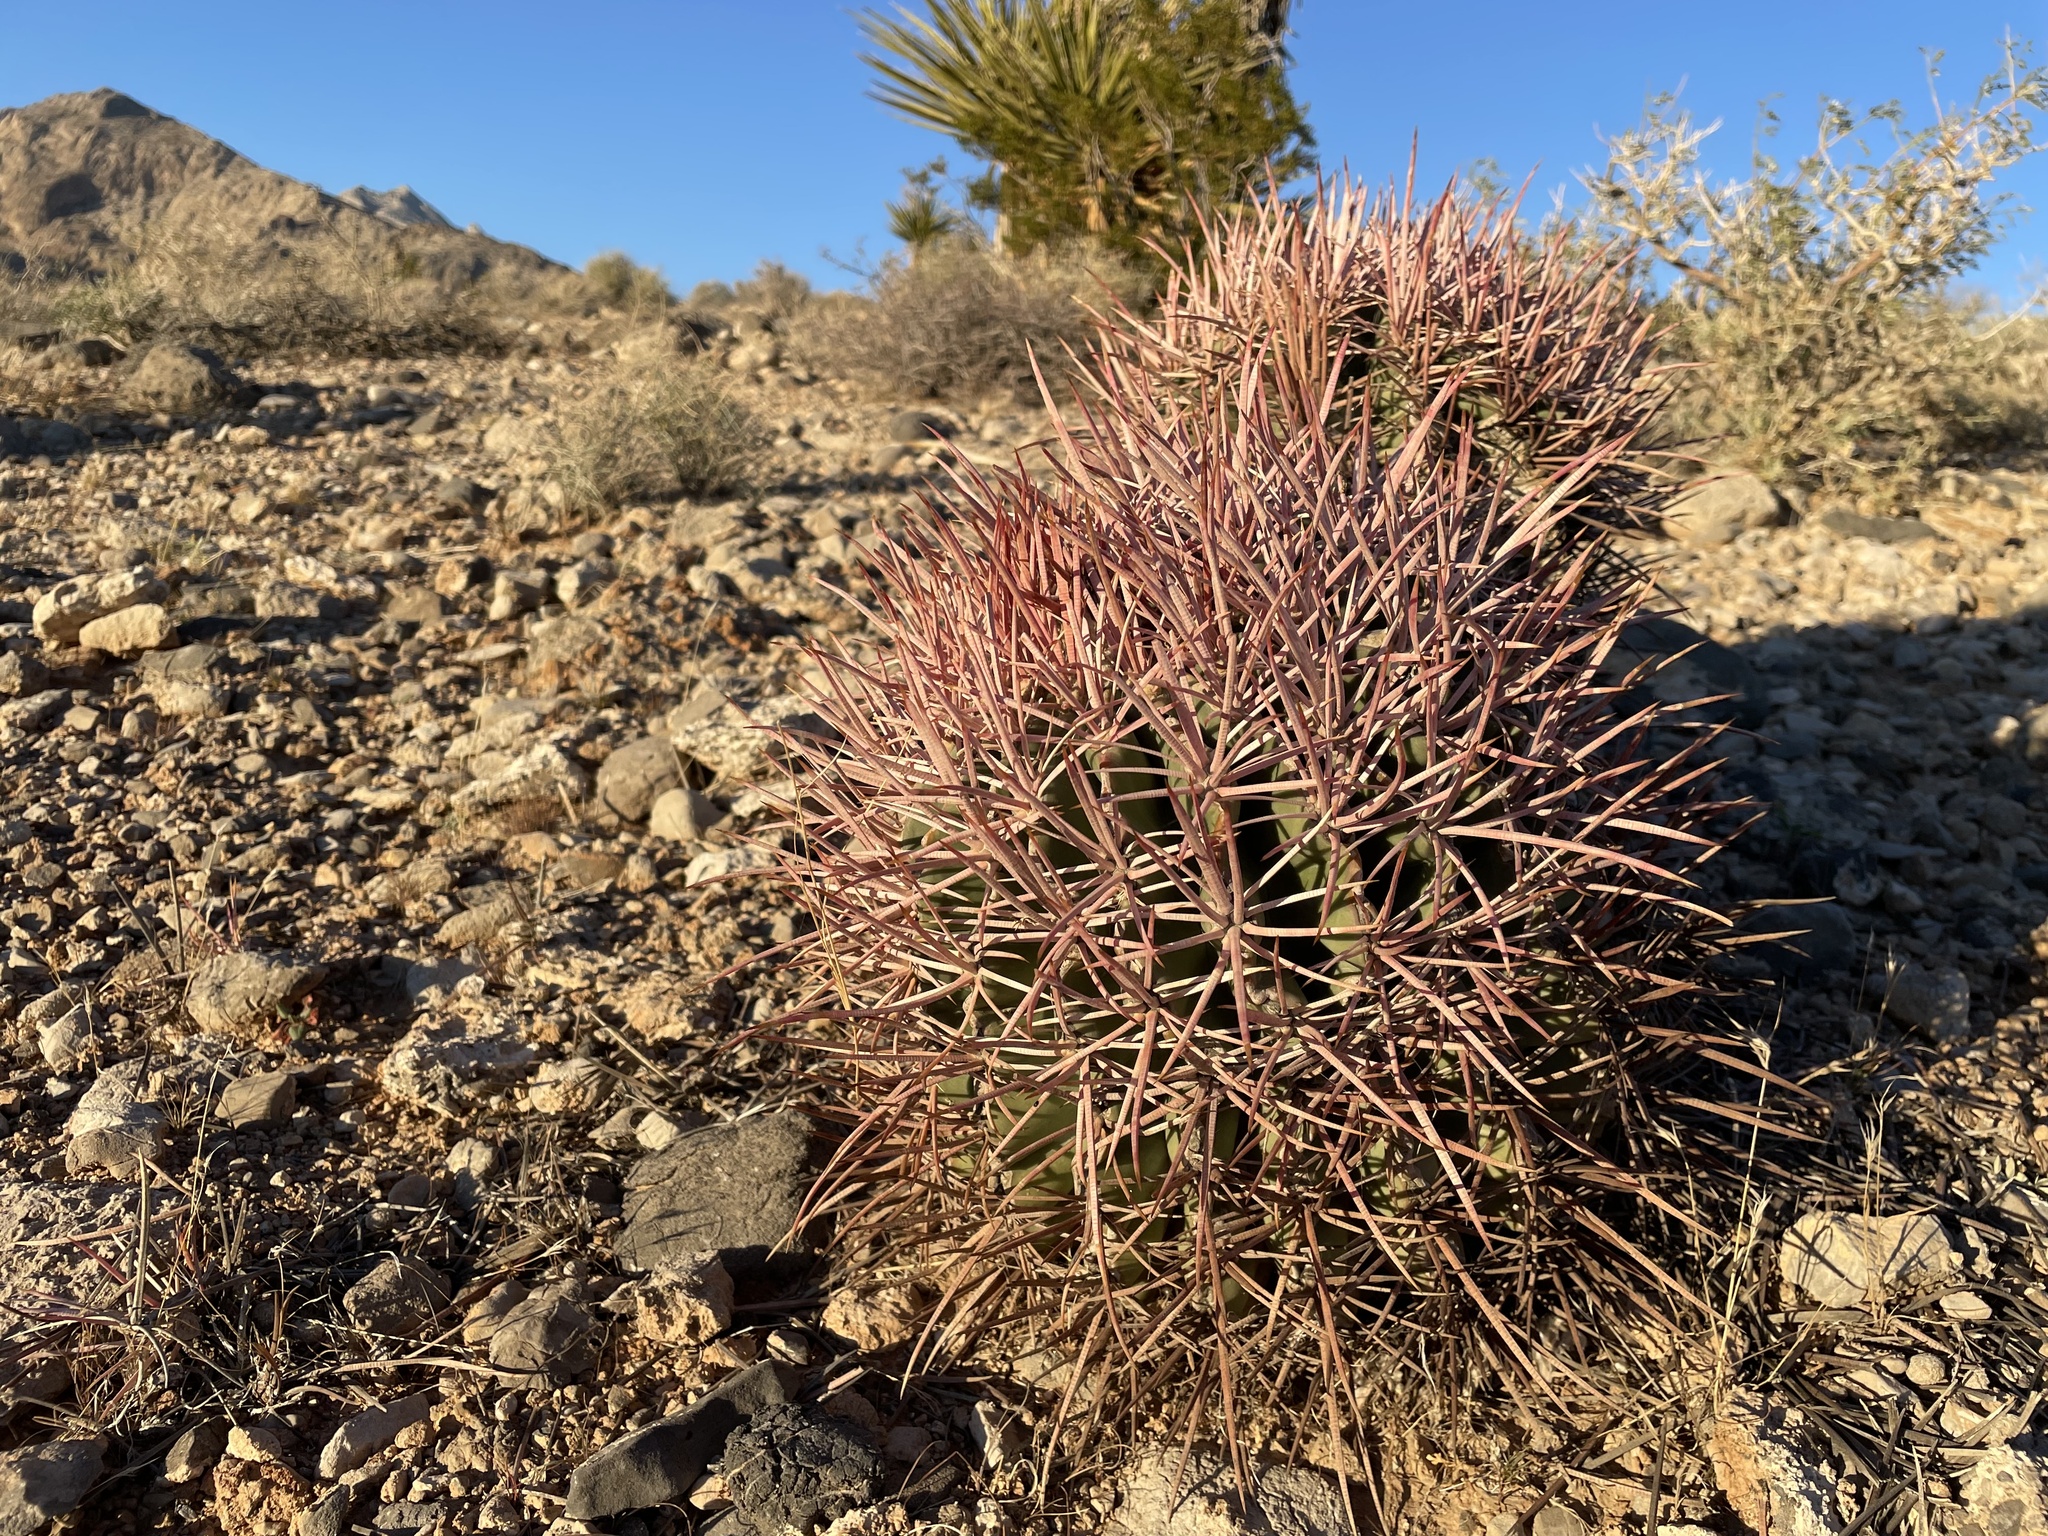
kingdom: Plantae
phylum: Tracheophyta
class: Magnoliopsida
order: Caryophyllales
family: Cactaceae
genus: Echinocactus
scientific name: Echinocactus polycephalus
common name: Cottontop cactus
